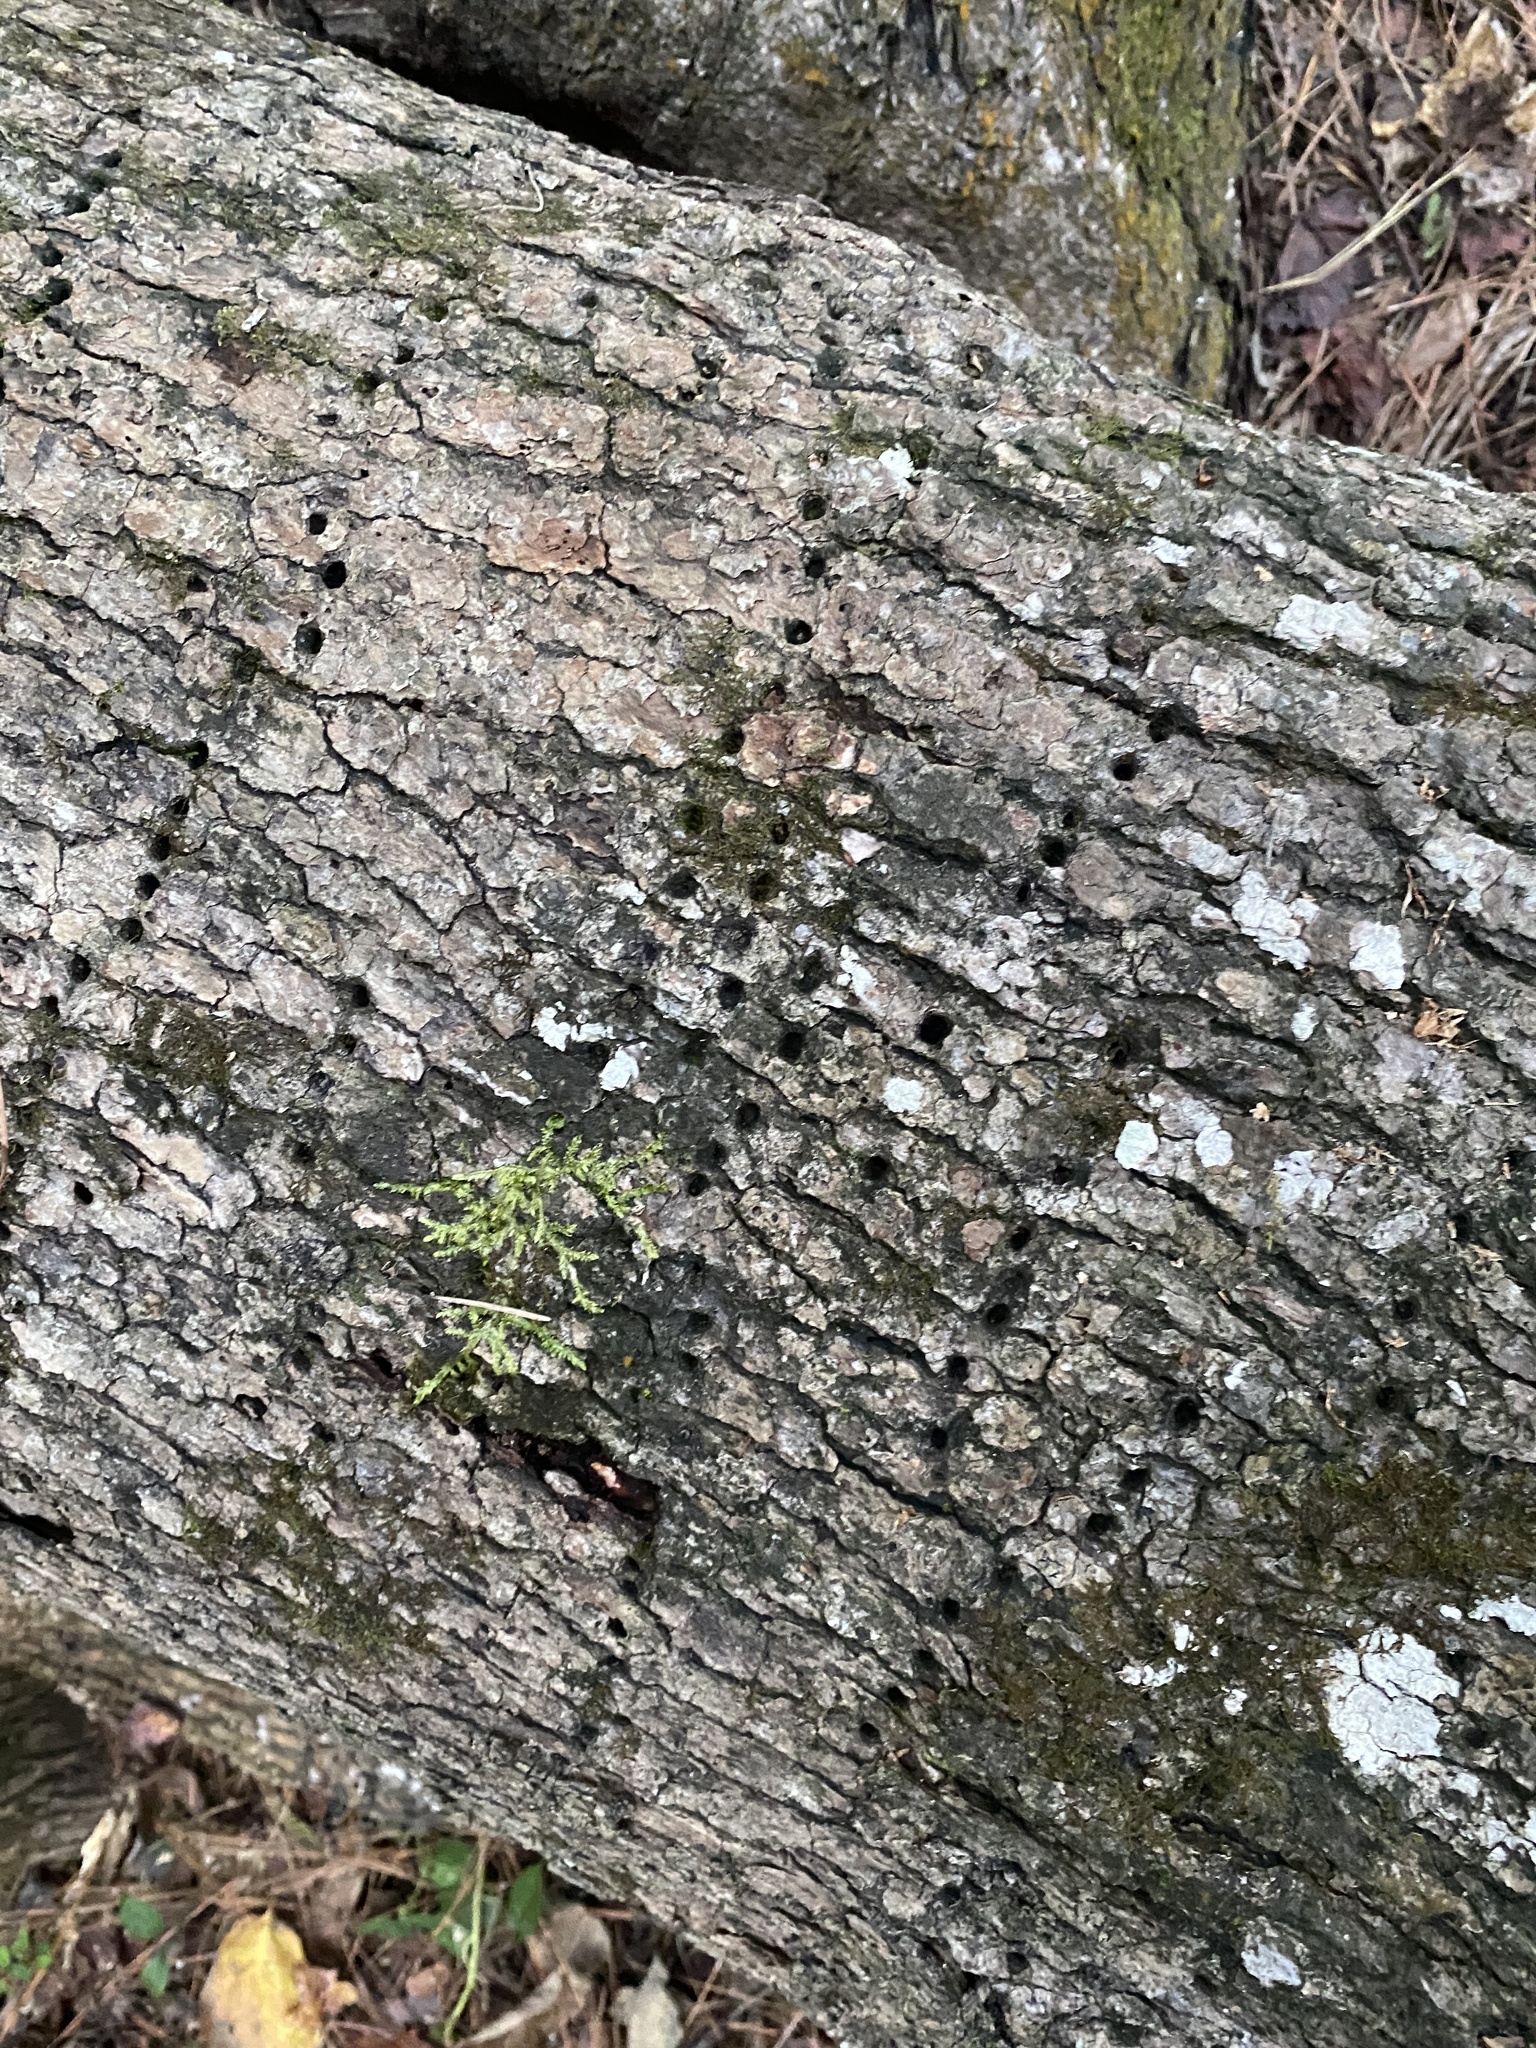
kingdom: Animalia
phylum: Chordata
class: Aves
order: Piciformes
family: Picidae
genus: Sphyrapicus
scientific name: Sphyrapicus varius
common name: Yellow-bellied sapsucker
